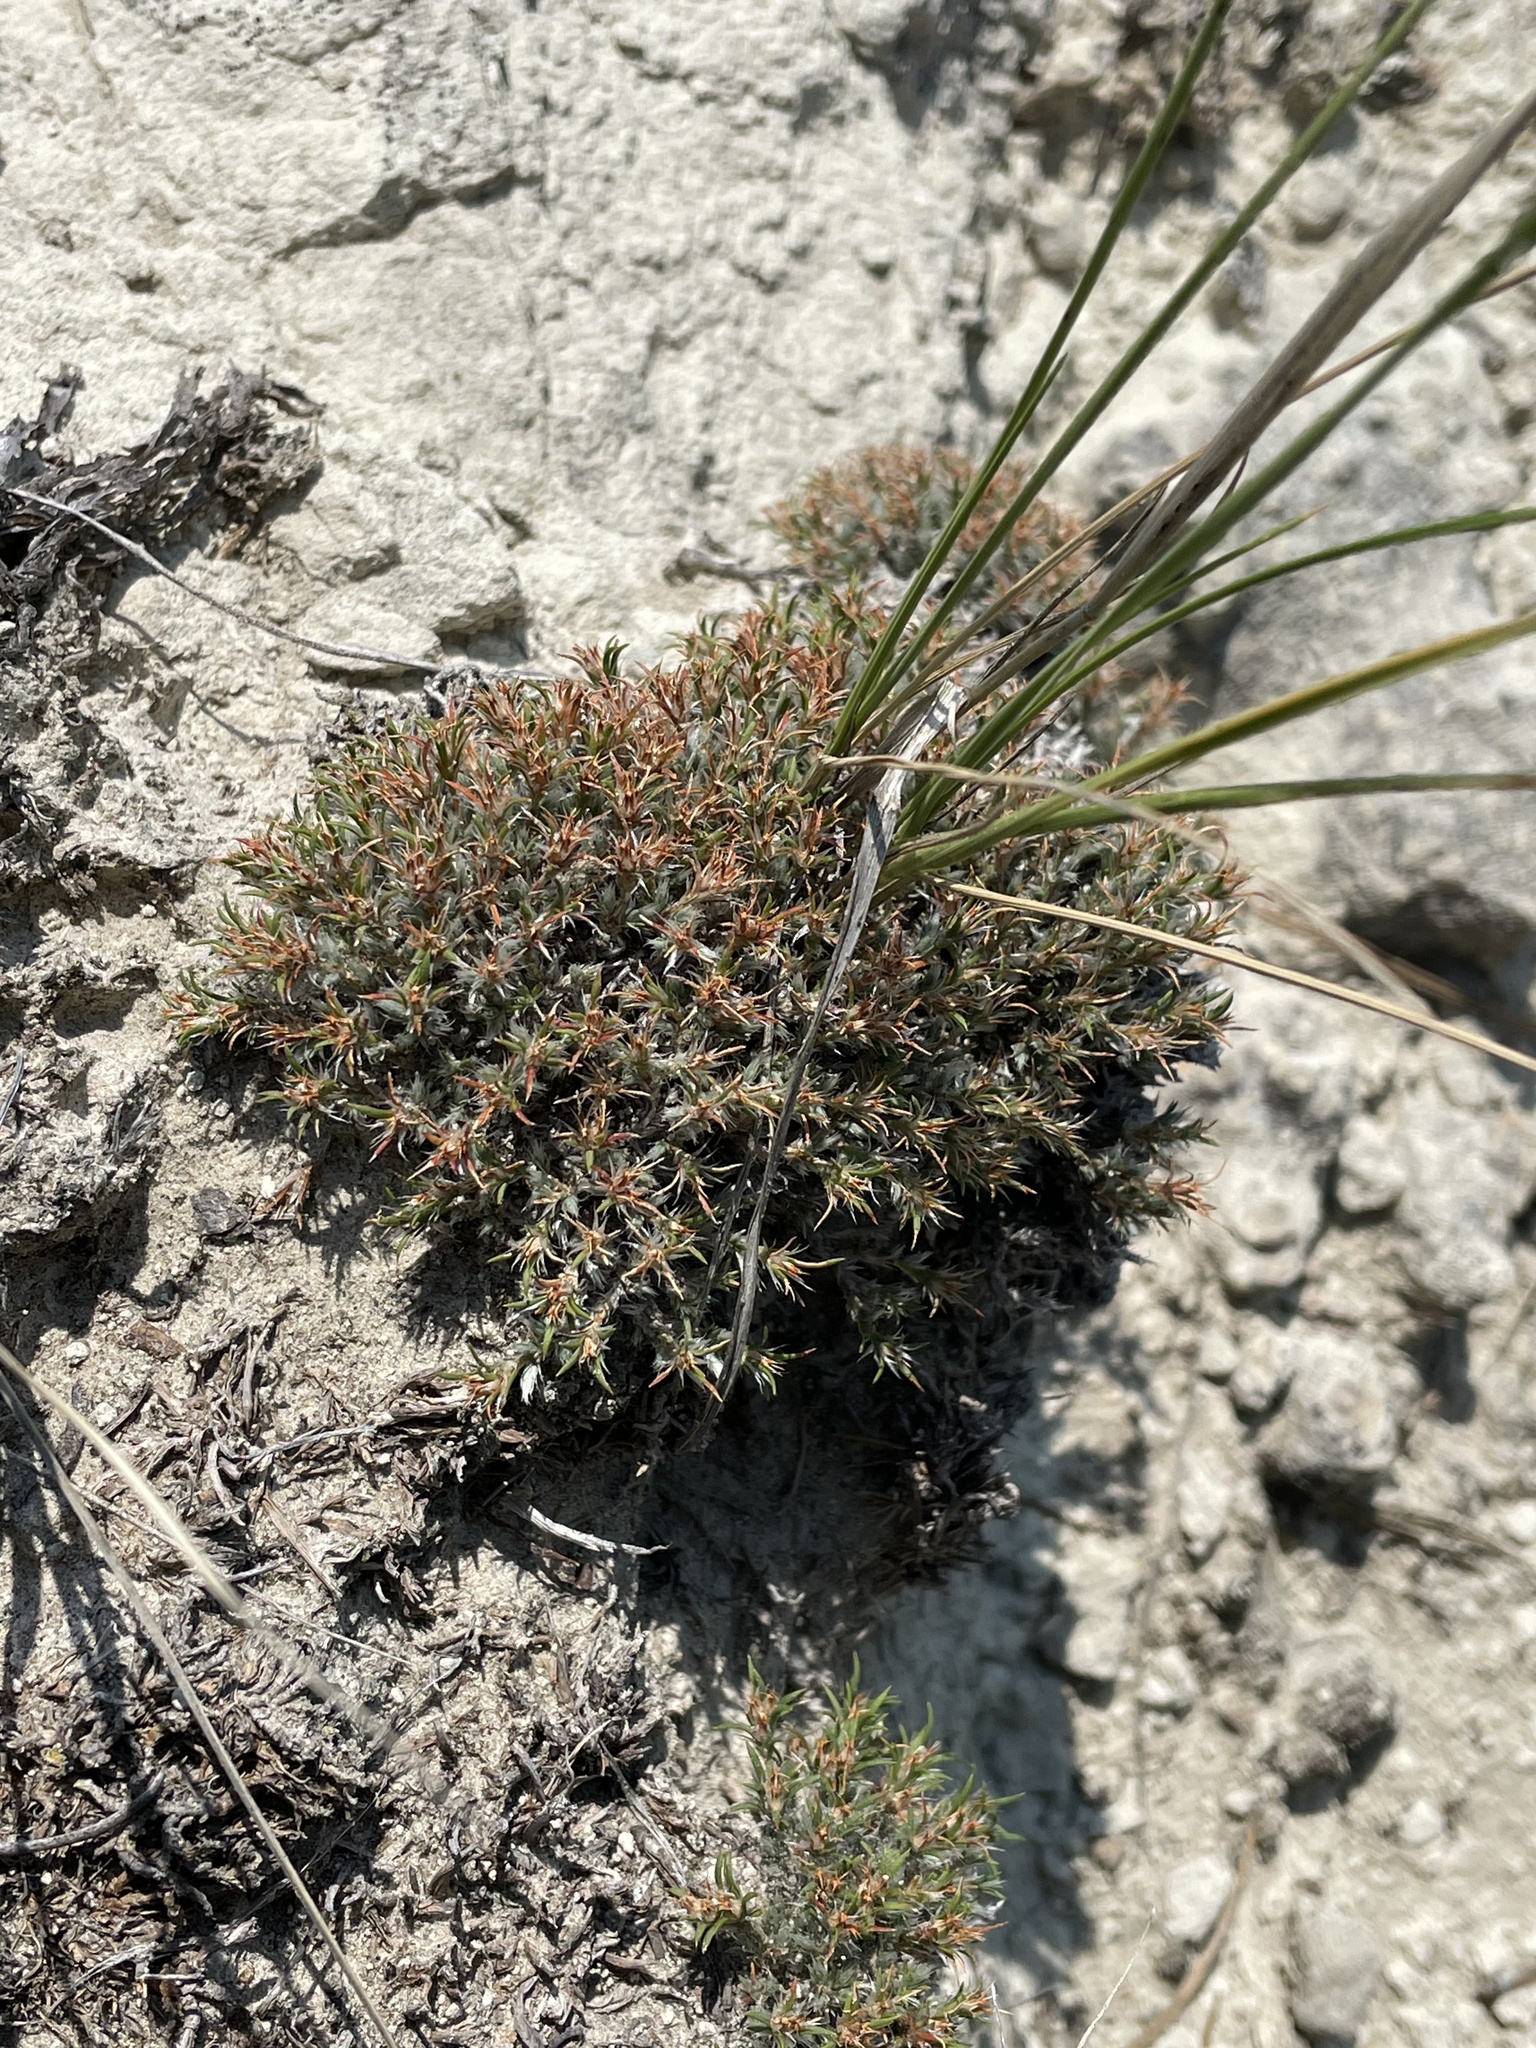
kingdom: Plantae
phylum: Tracheophyta
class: Magnoliopsida
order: Caryophyllales
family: Caryophyllaceae
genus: Paronychia
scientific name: Paronychia sessiliflora
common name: Creeping nailwort
